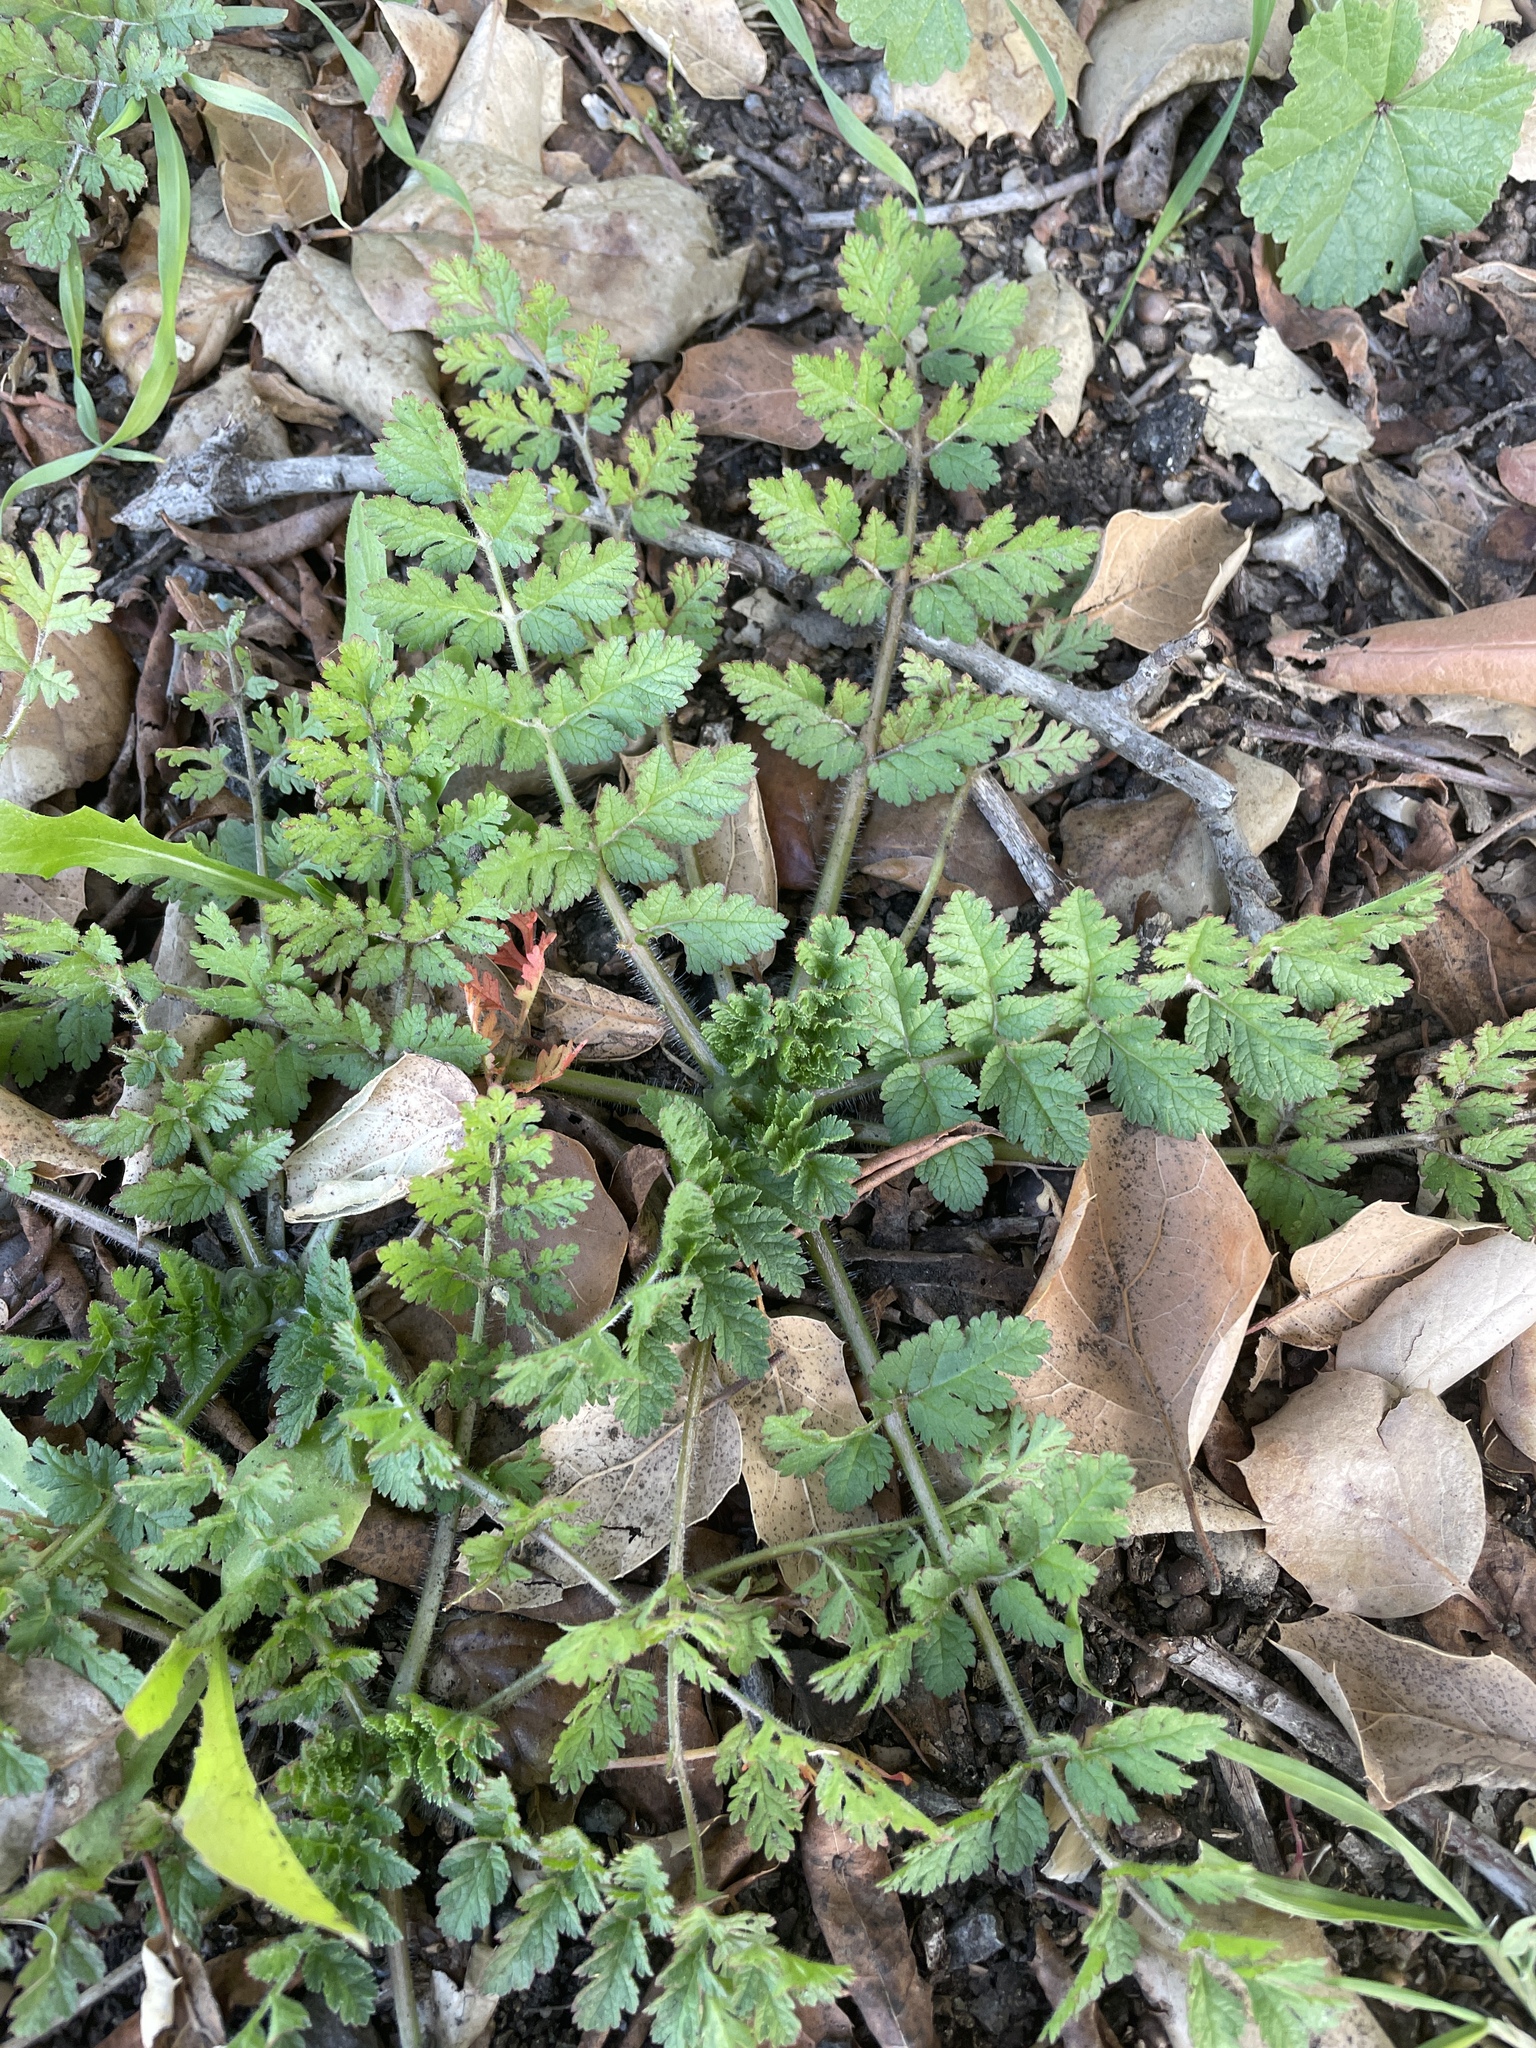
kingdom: Plantae
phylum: Tracheophyta
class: Magnoliopsida
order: Geraniales
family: Geraniaceae
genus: Erodium
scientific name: Erodium moschatum
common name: Musk stork's-bill
